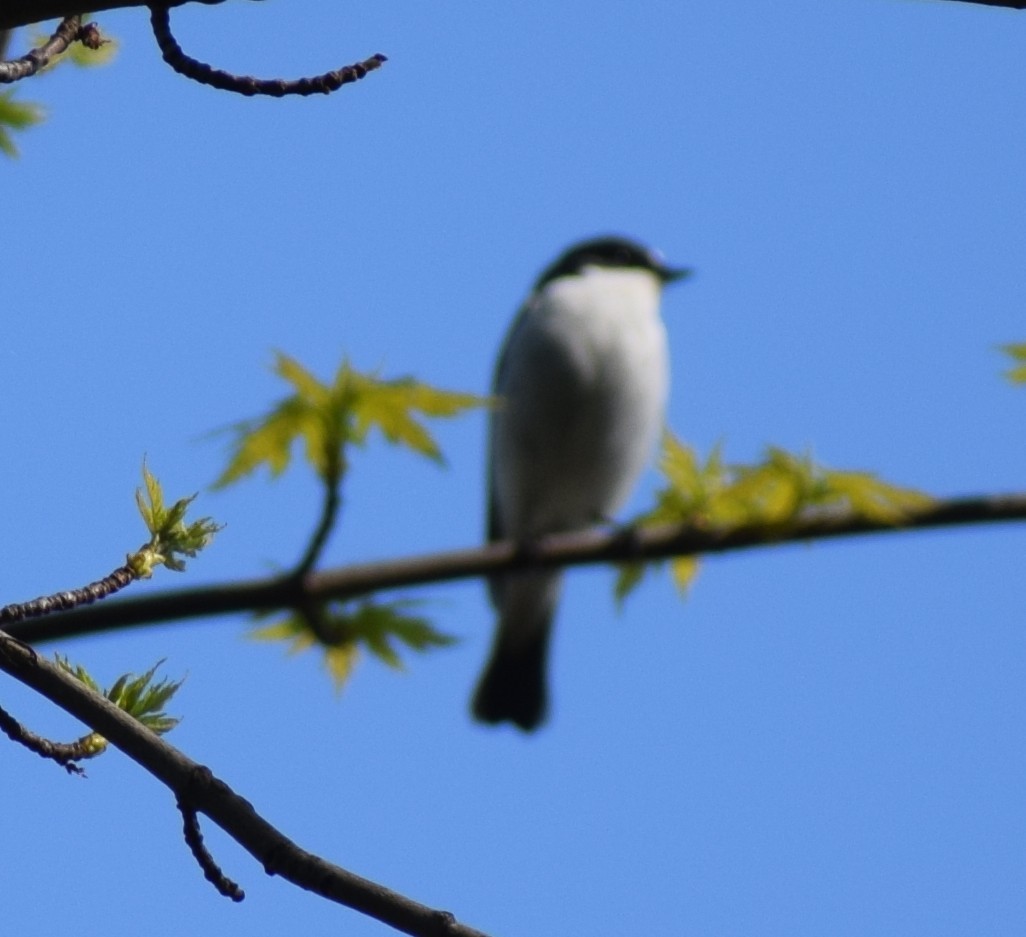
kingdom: Animalia
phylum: Chordata
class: Aves
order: Passeriformes
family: Muscicapidae
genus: Ficedula
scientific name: Ficedula hypoleuca
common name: European pied flycatcher
